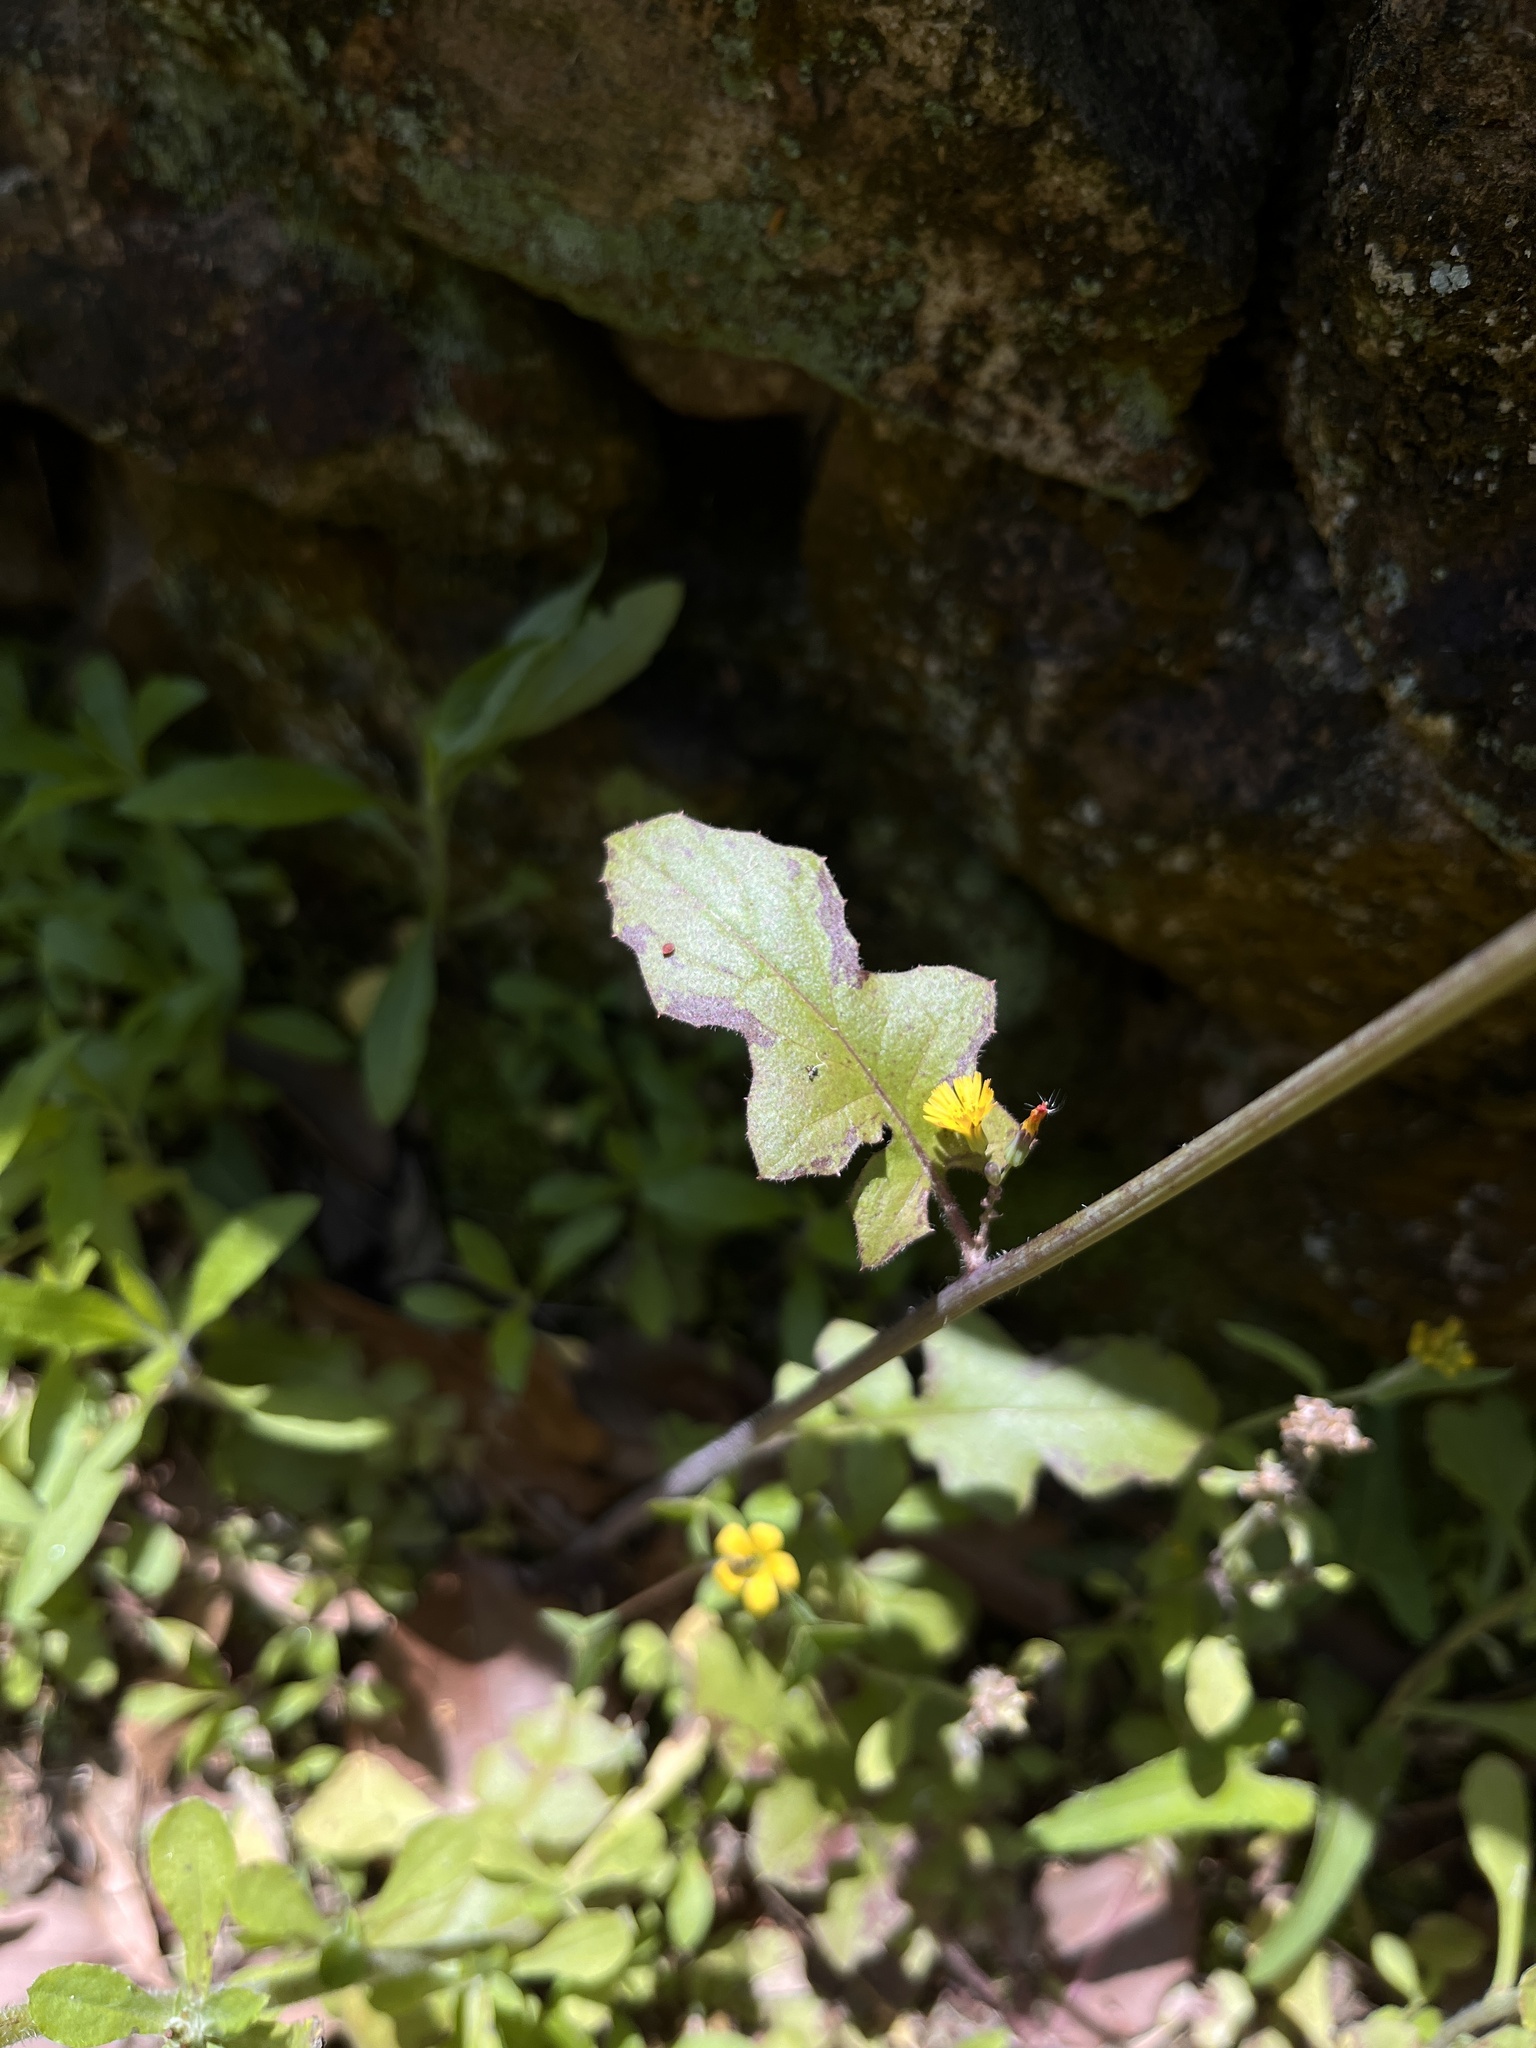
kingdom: Plantae
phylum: Tracheophyta
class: Magnoliopsida
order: Asterales
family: Asteraceae
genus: Youngia
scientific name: Youngia japonica
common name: Oriental false hawksbeard
